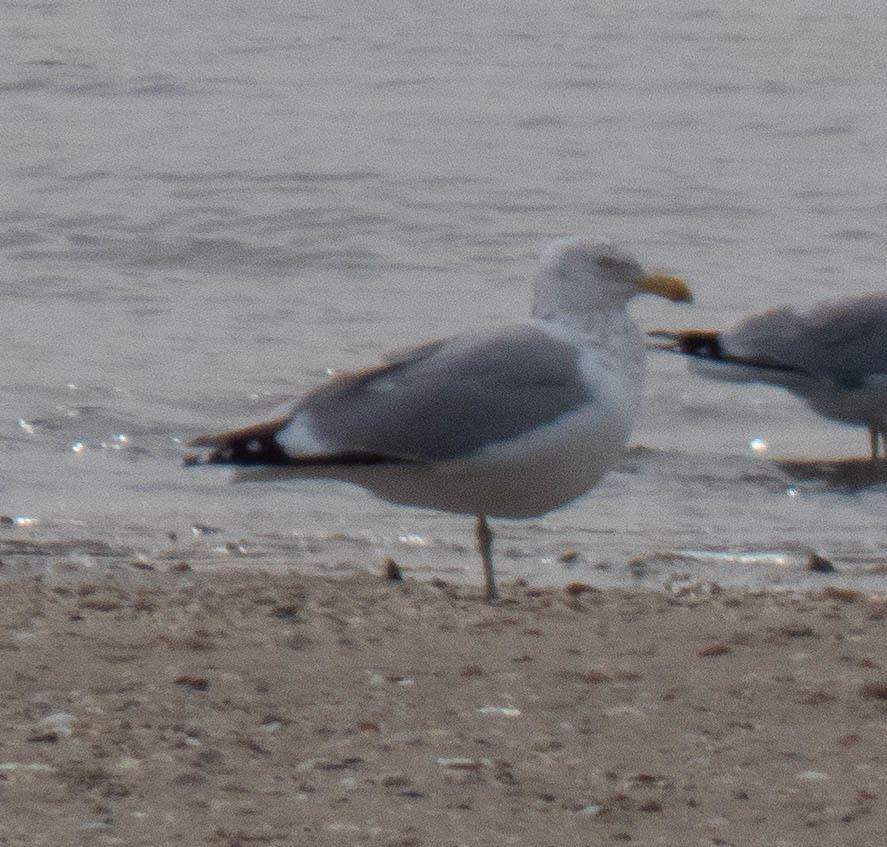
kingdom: Animalia
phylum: Chordata
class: Aves
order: Charadriiformes
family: Laridae
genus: Larus
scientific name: Larus argentatus
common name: Herring gull
